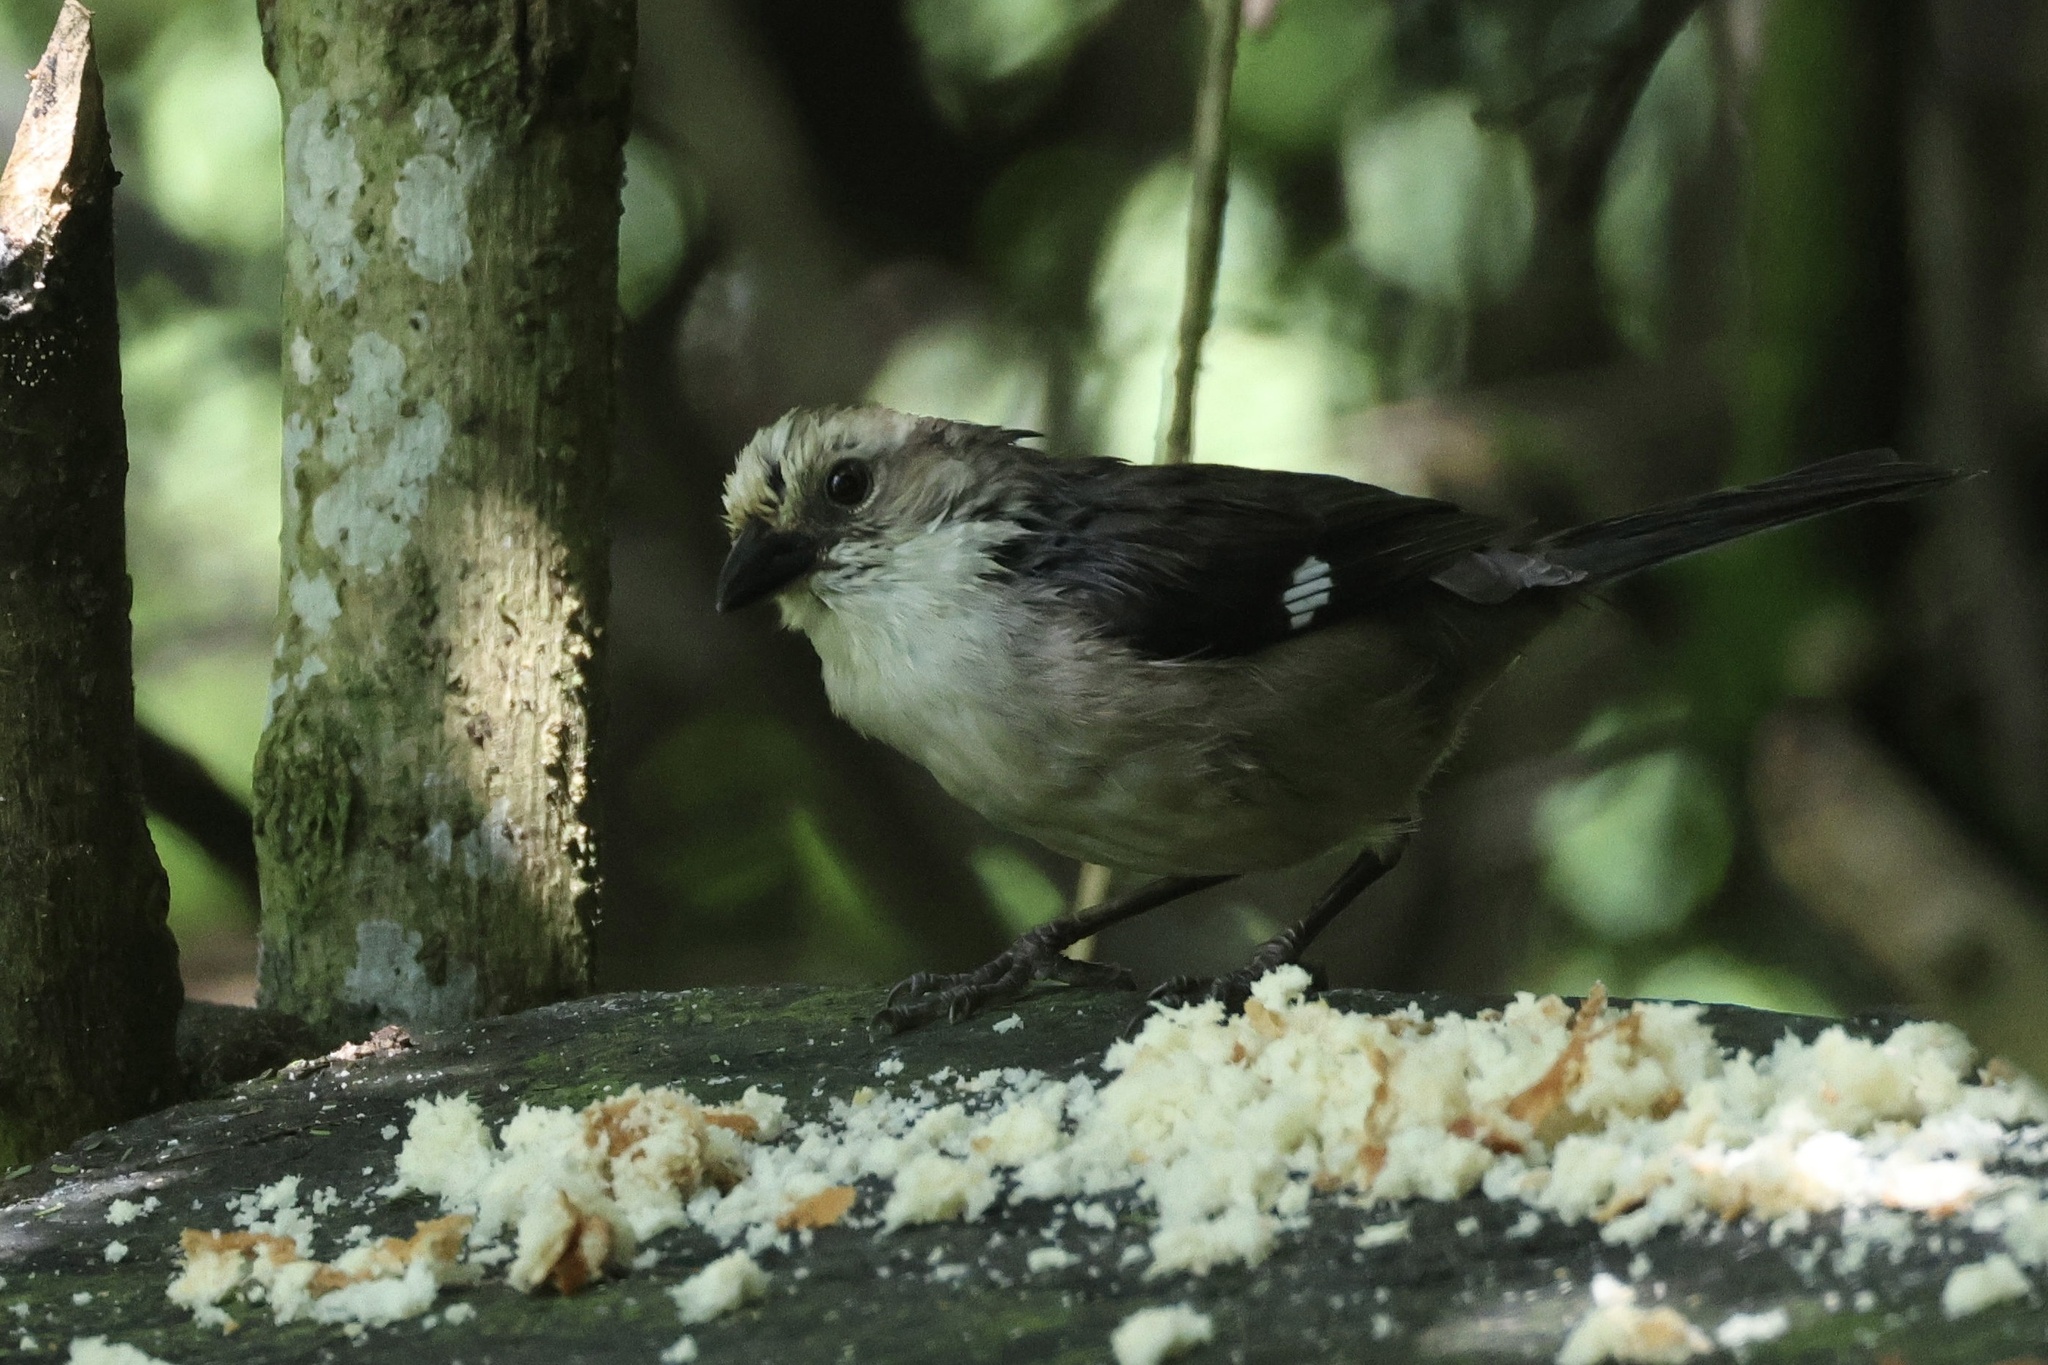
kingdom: Animalia
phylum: Chordata
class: Aves
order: Passeriformes
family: Passerellidae
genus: Atlapetes
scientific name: Atlapetes pallidiceps
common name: Pale-headed brushfinch
